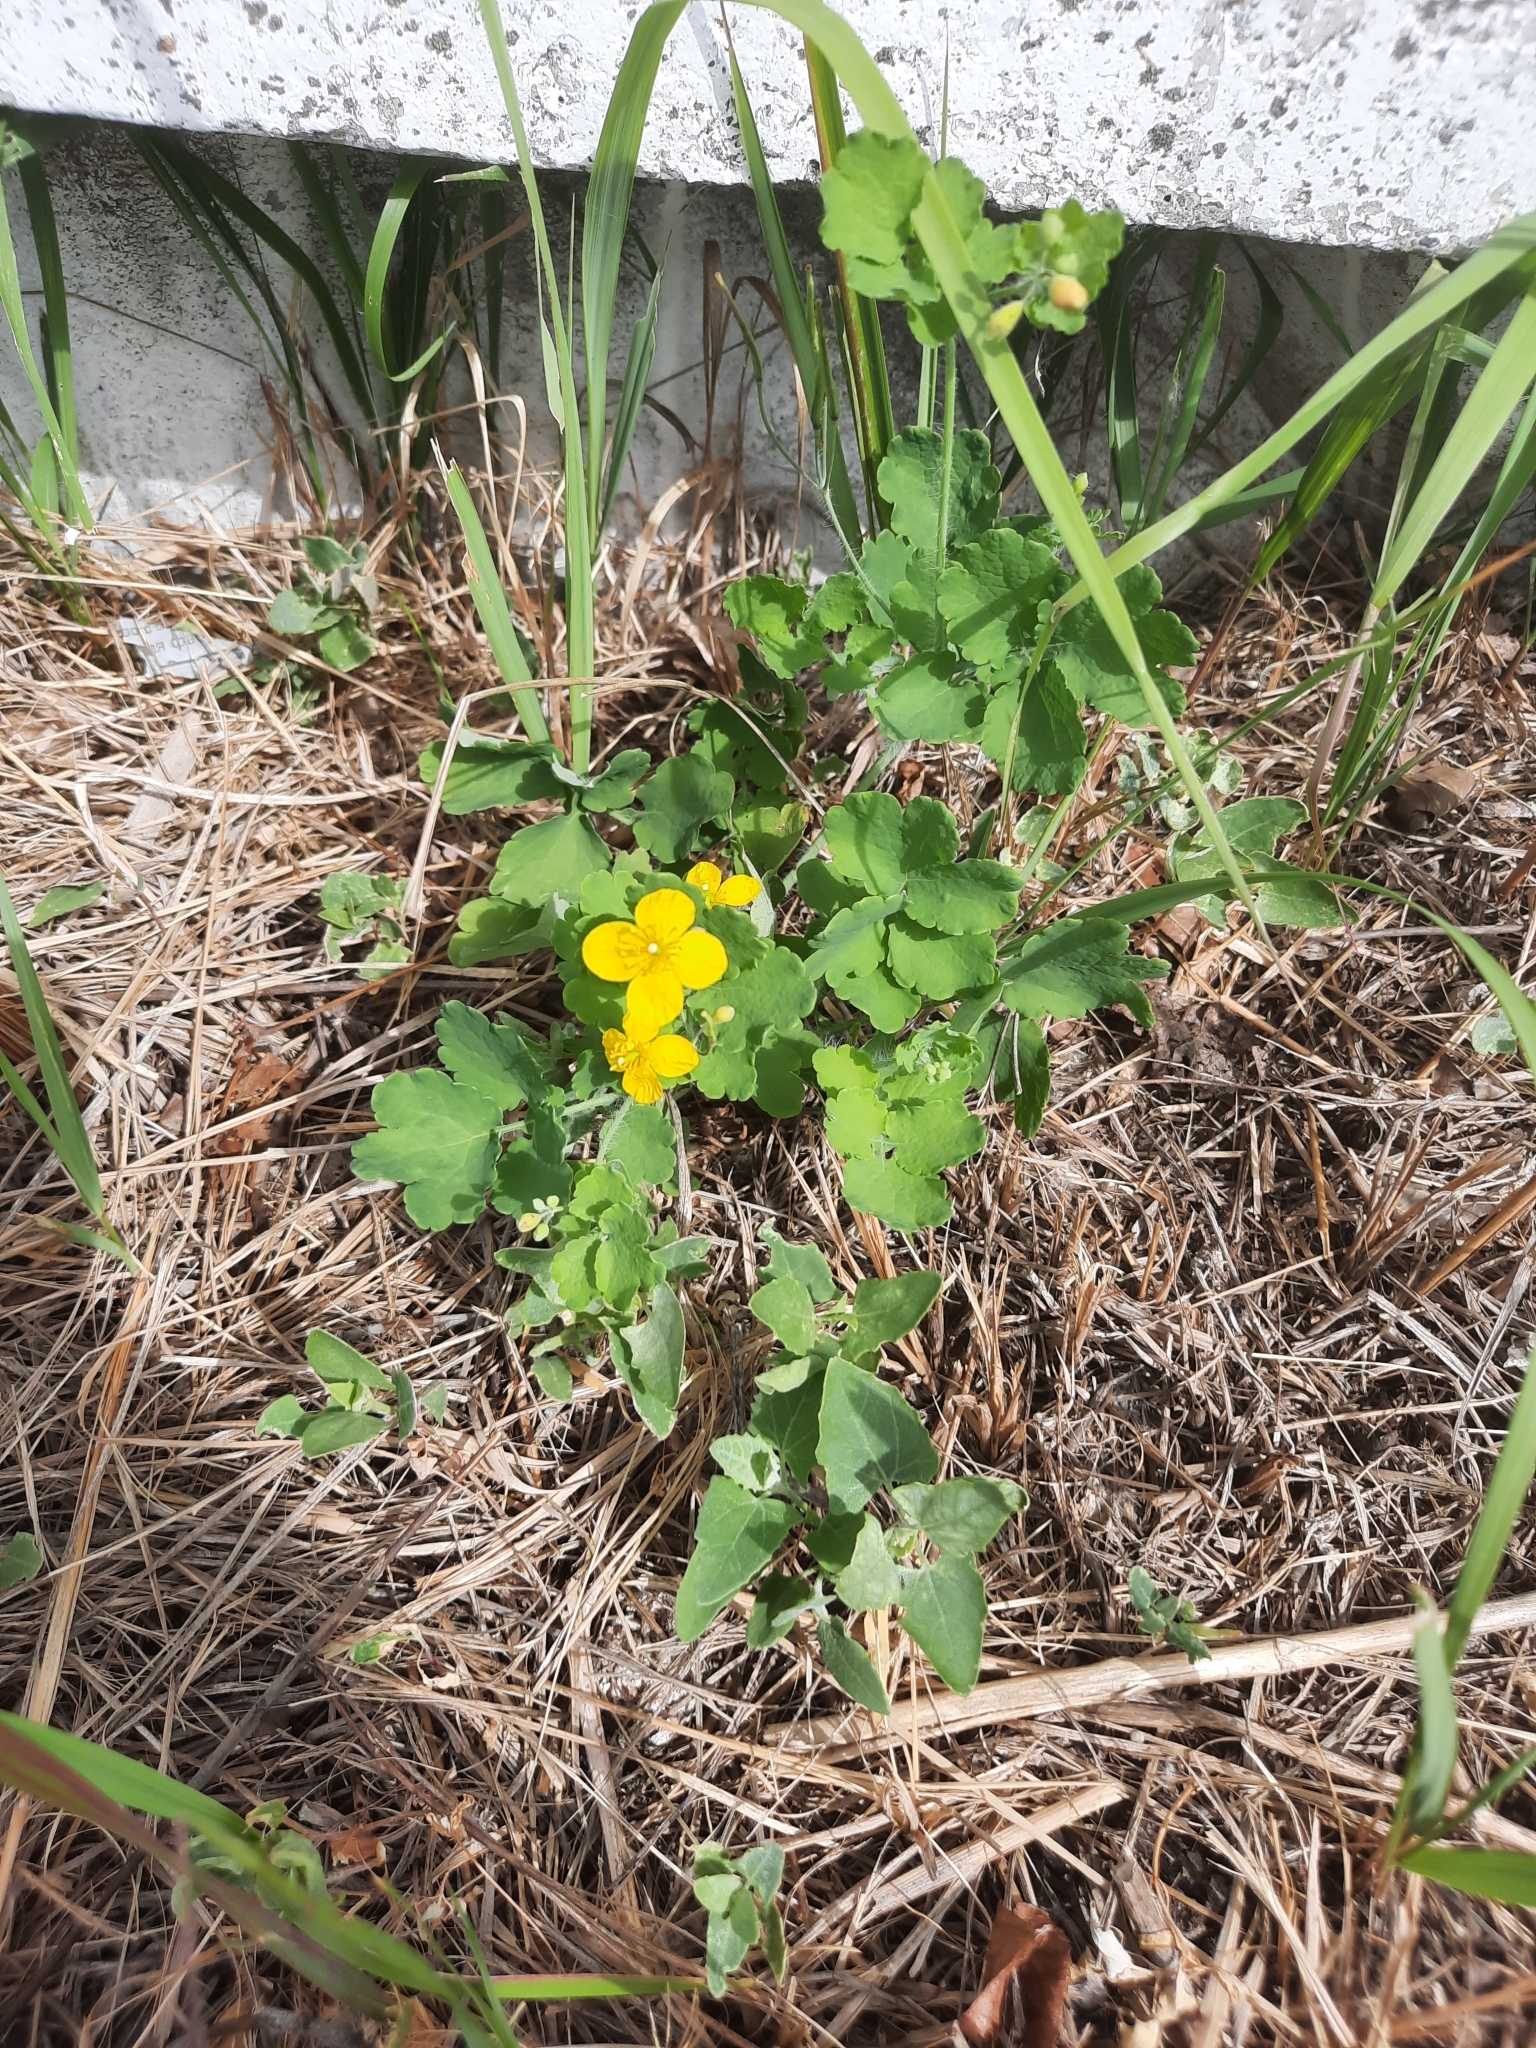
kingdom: Plantae
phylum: Tracheophyta
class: Magnoliopsida
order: Ranunculales
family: Papaveraceae
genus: Chelidonium
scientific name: Chelidonium majus
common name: Greater celandine
